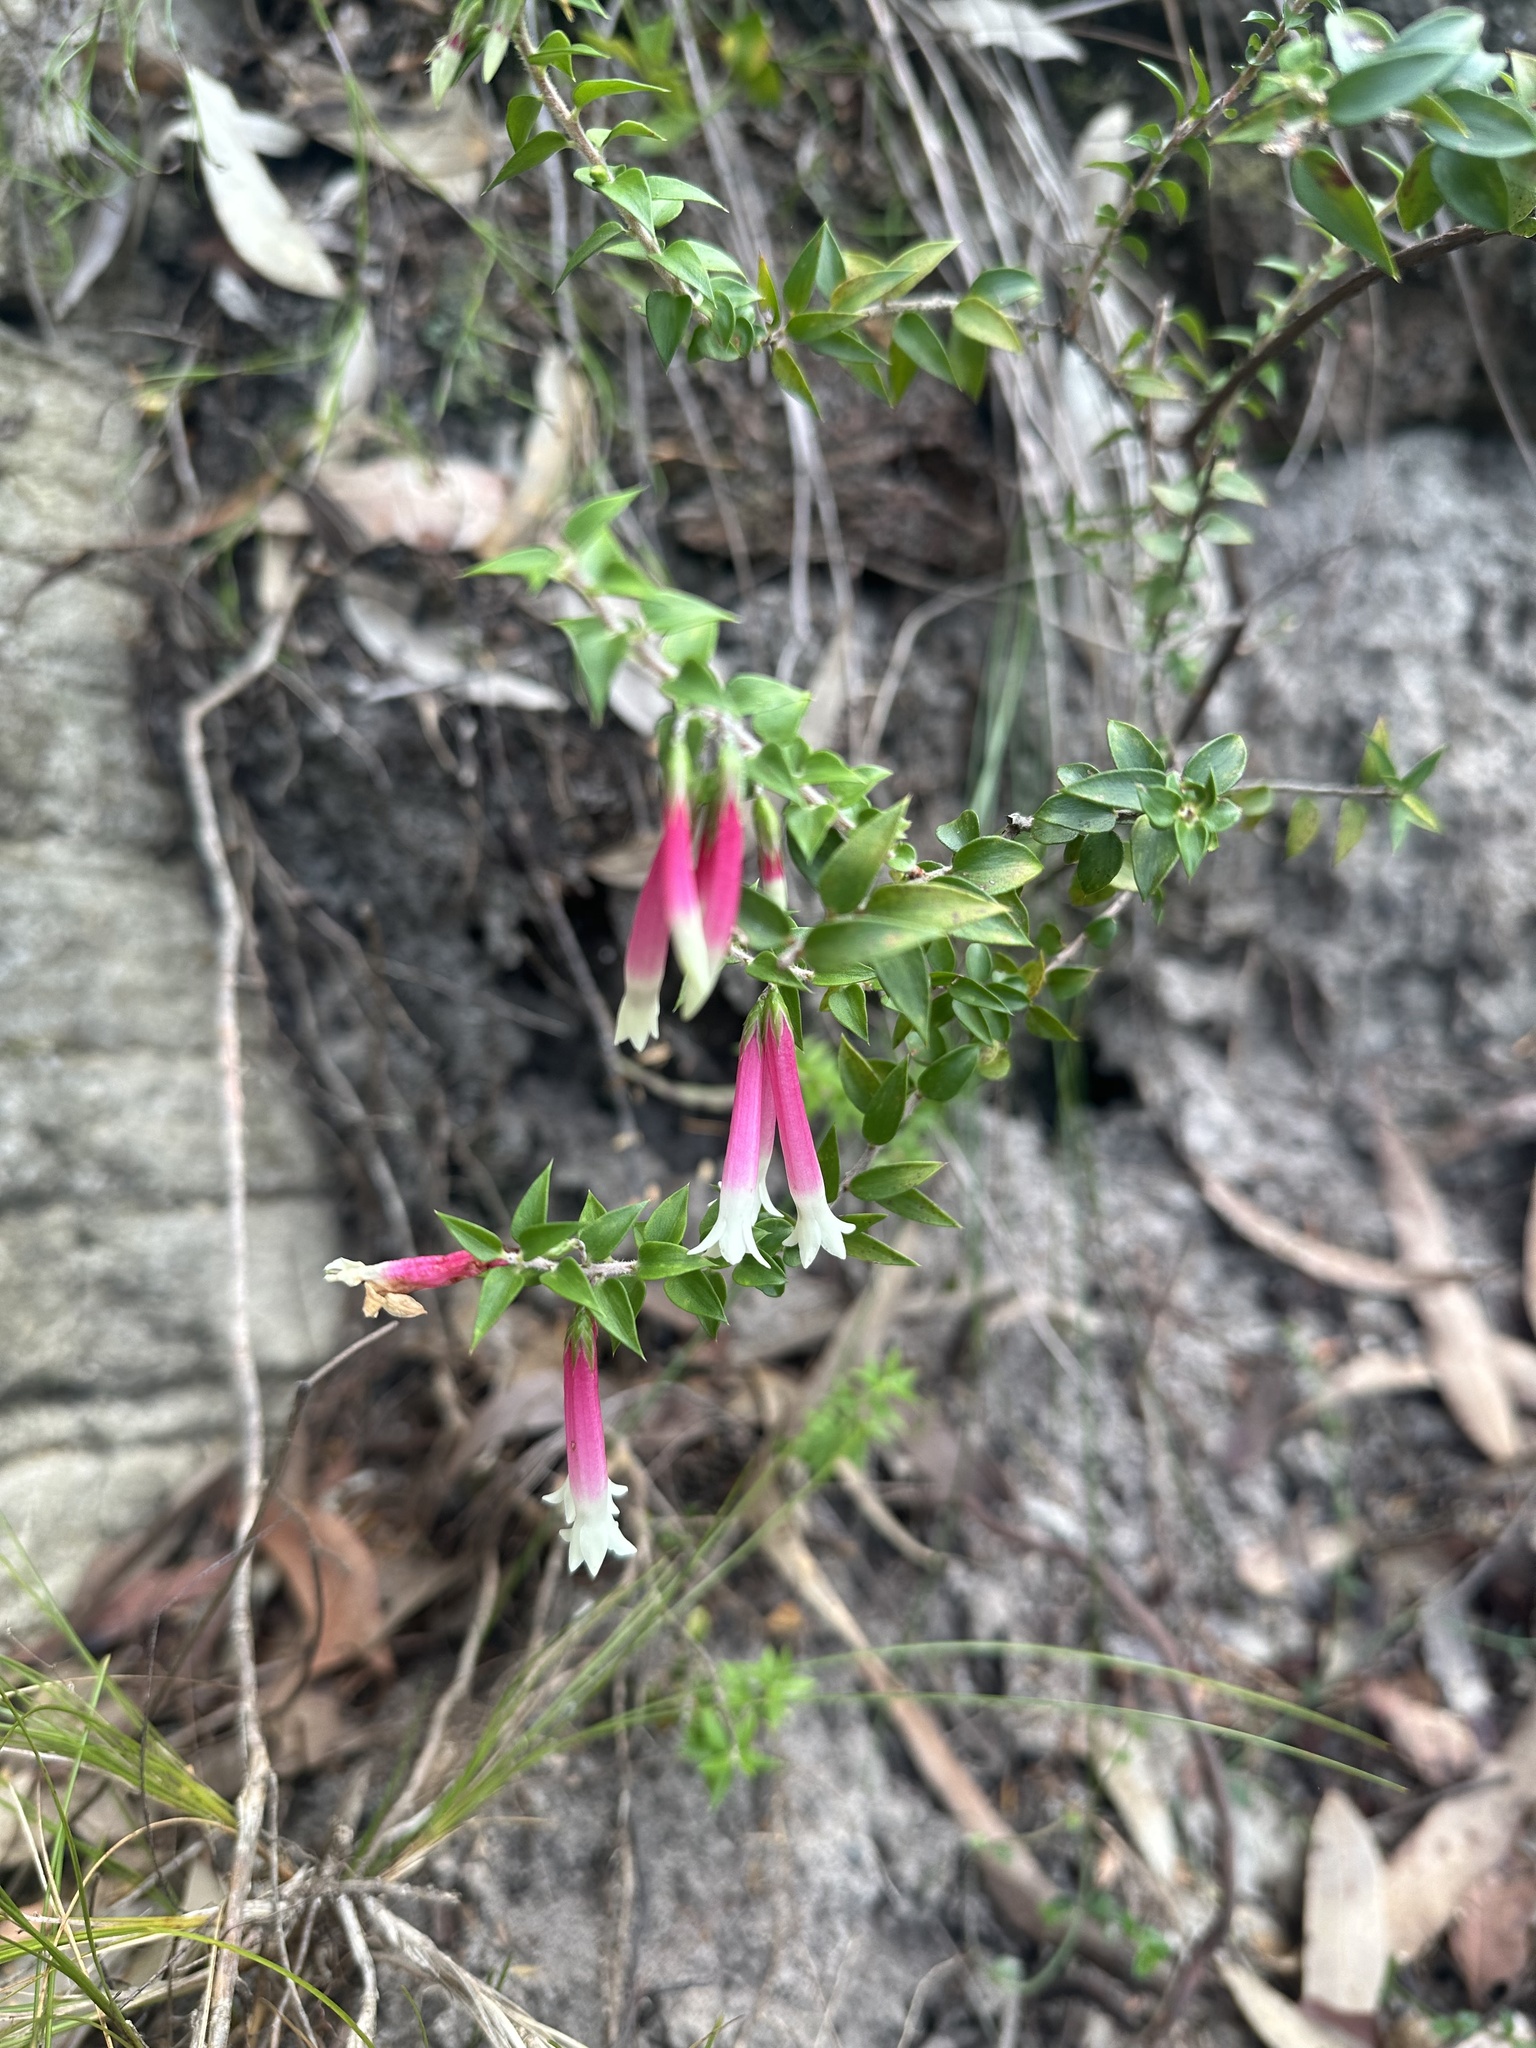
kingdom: Plantae
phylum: Tracheophyta
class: Magnoliopsida
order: Ericales
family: Ericaceae
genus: Epacris
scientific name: Epacris longiflora
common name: Fuchsia-heath
